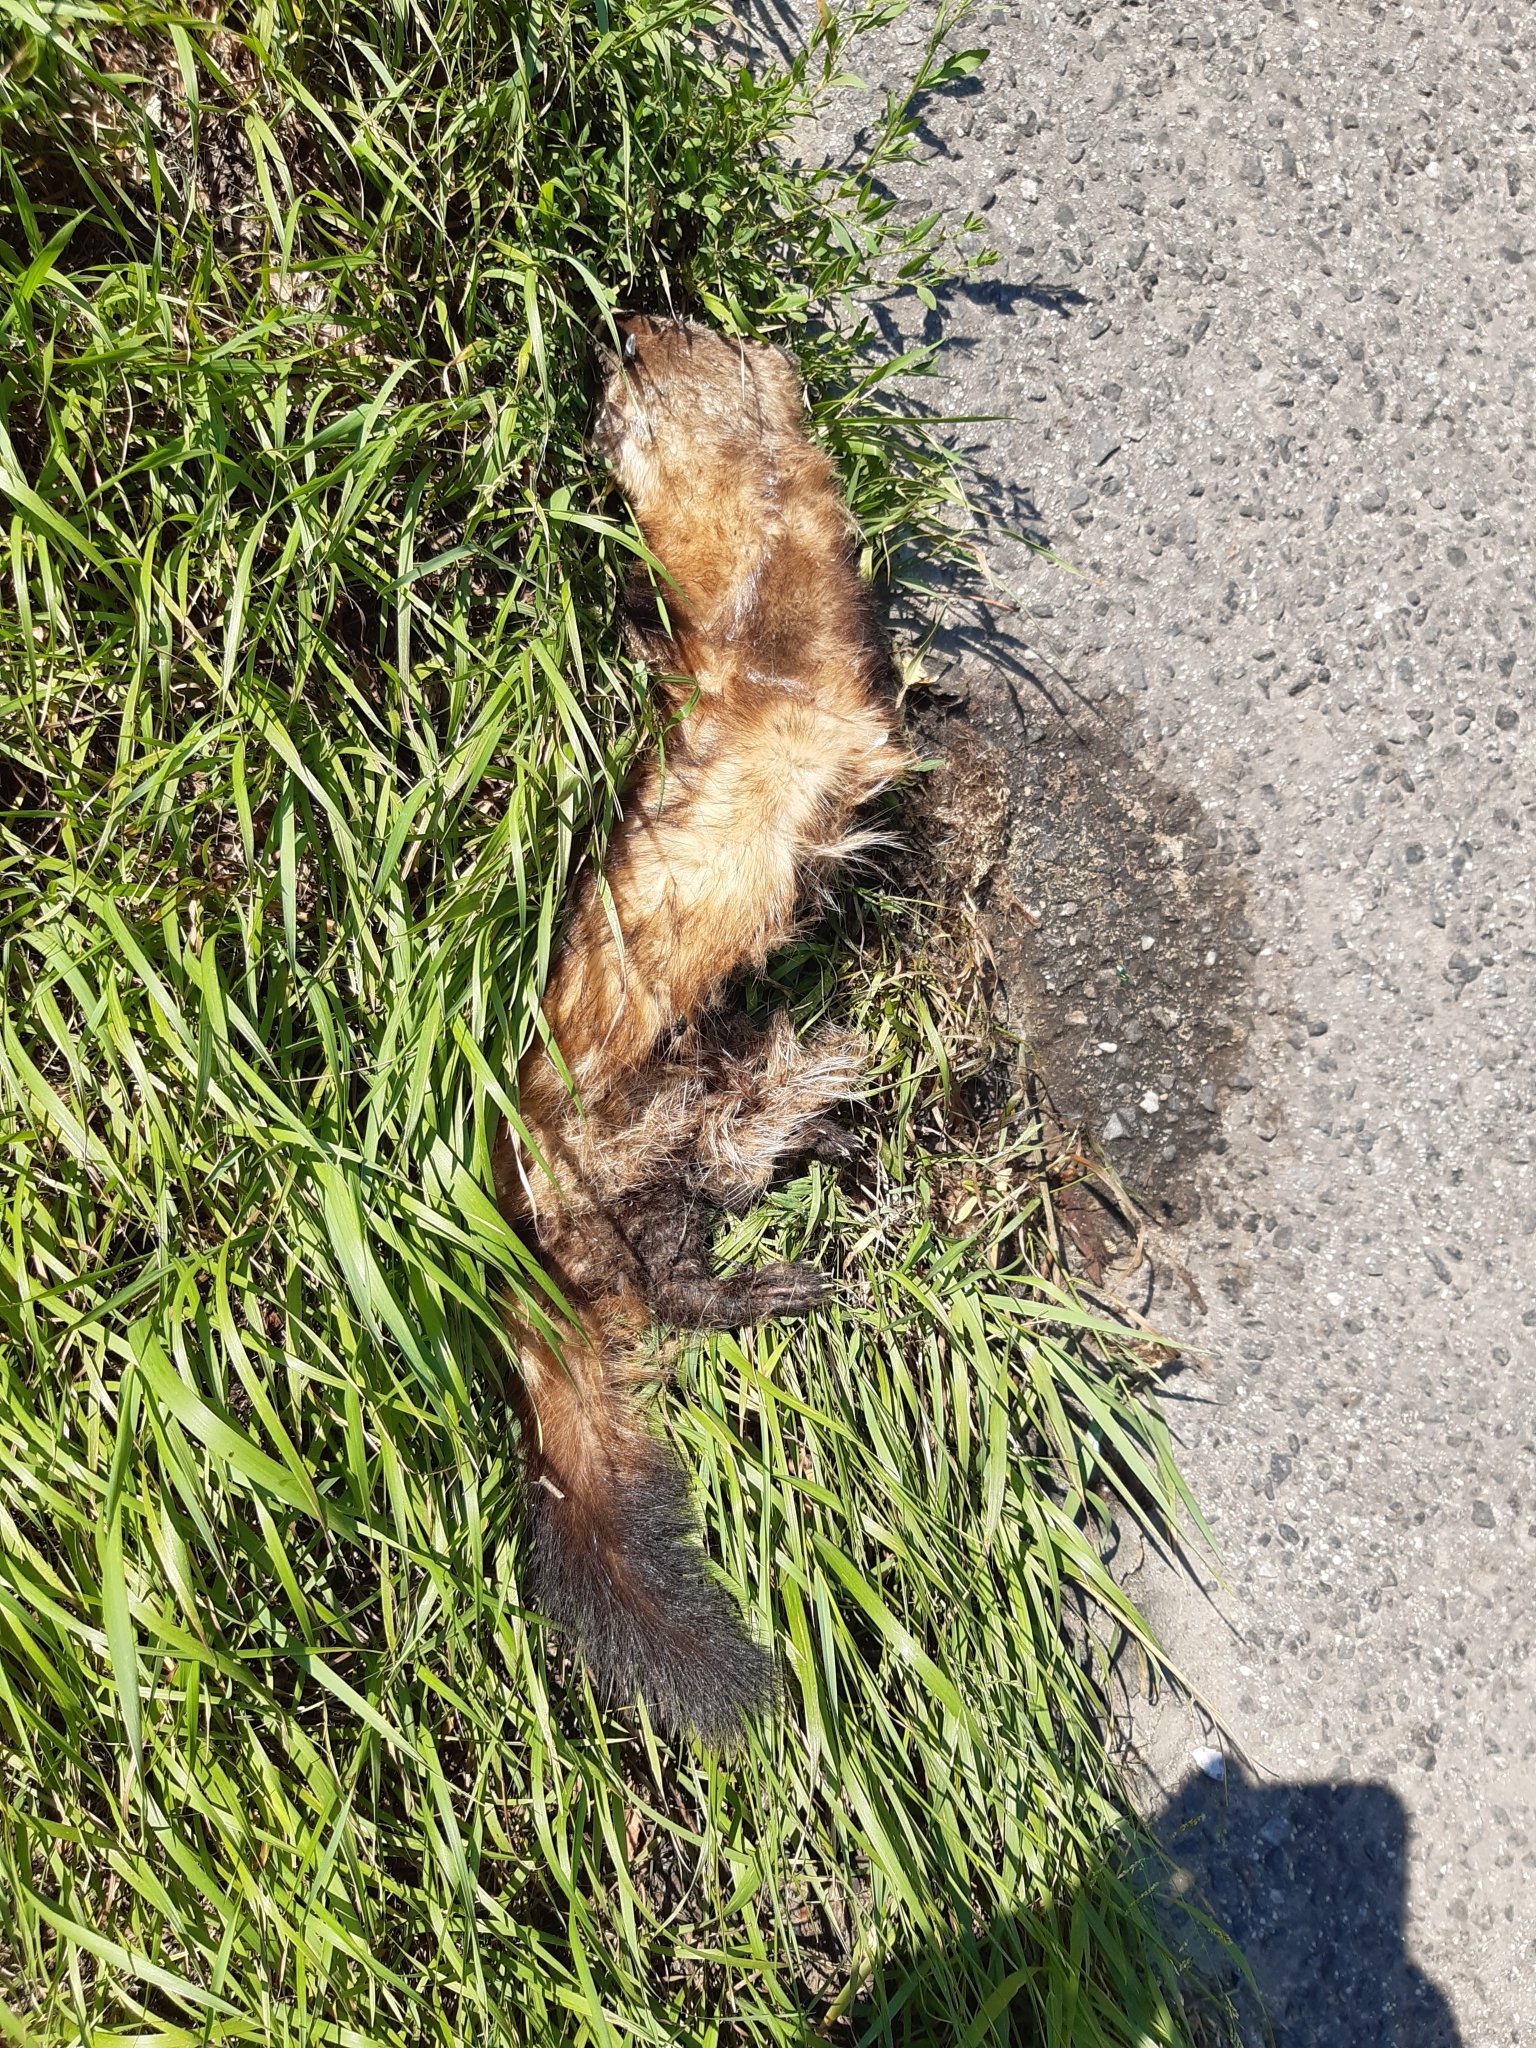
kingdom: Animalia
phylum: Chordata
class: Mammalia
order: Carnivora
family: Mustelidae
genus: Mustela
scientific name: Mustela eversmanii
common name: Steppe polecat
